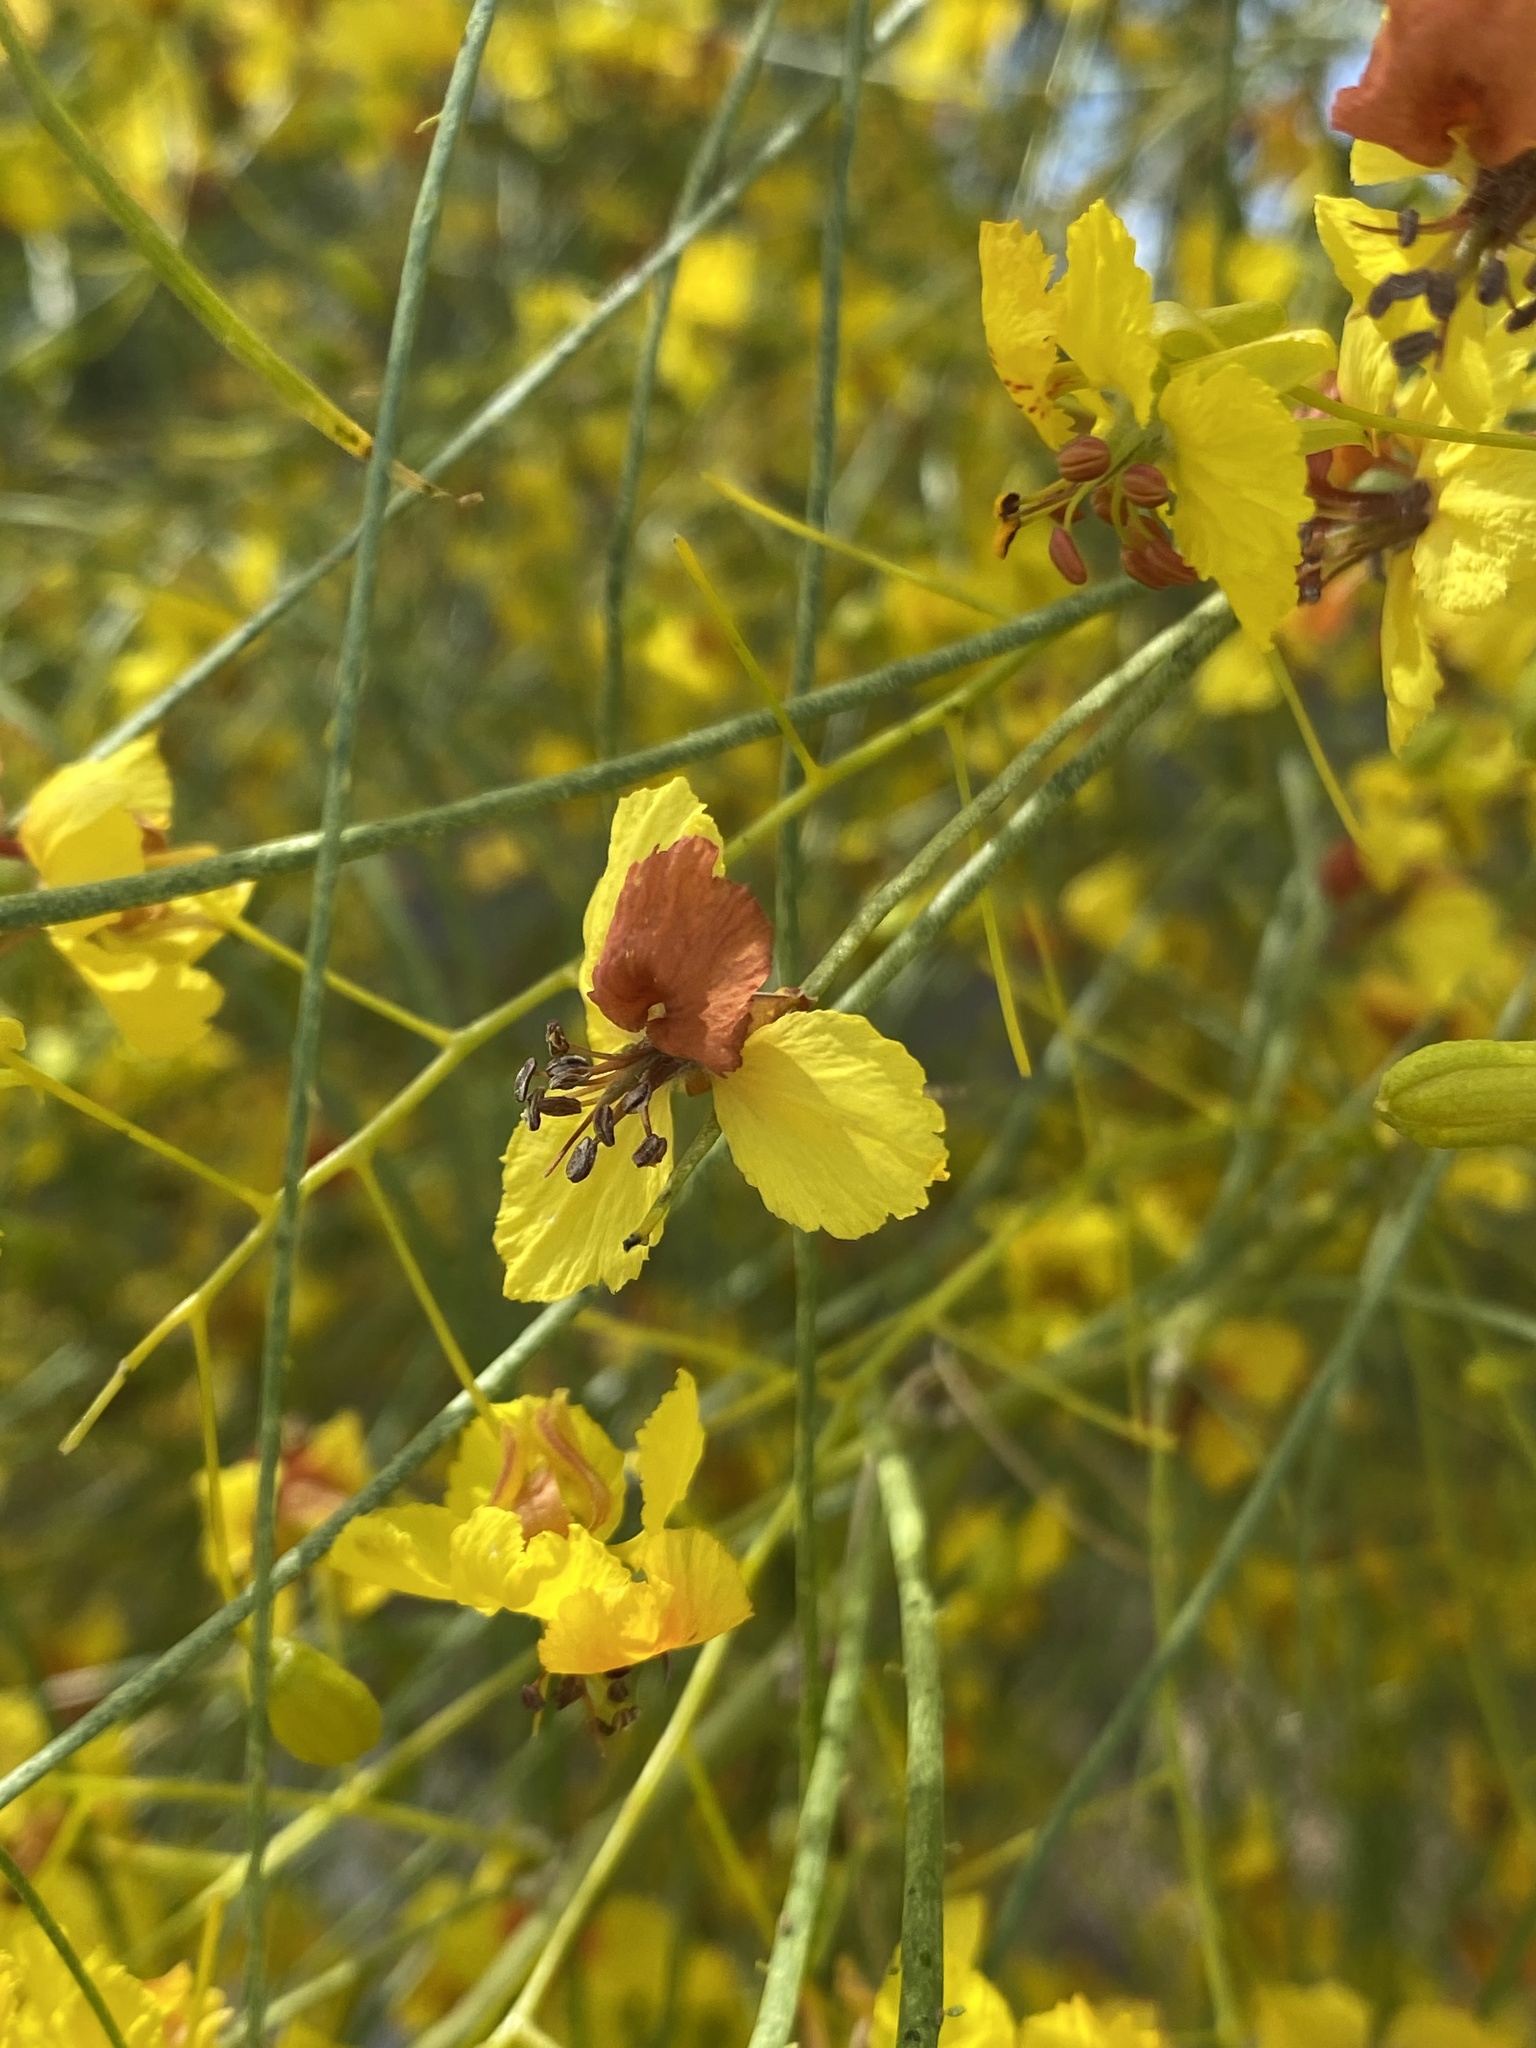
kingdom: Plantae
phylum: Tracheophyta
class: Magnoliopsida
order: Fabales
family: Fabaceae
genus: Parkinsonia
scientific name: Parkinsonia aculeata
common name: Jerusalem thorn
